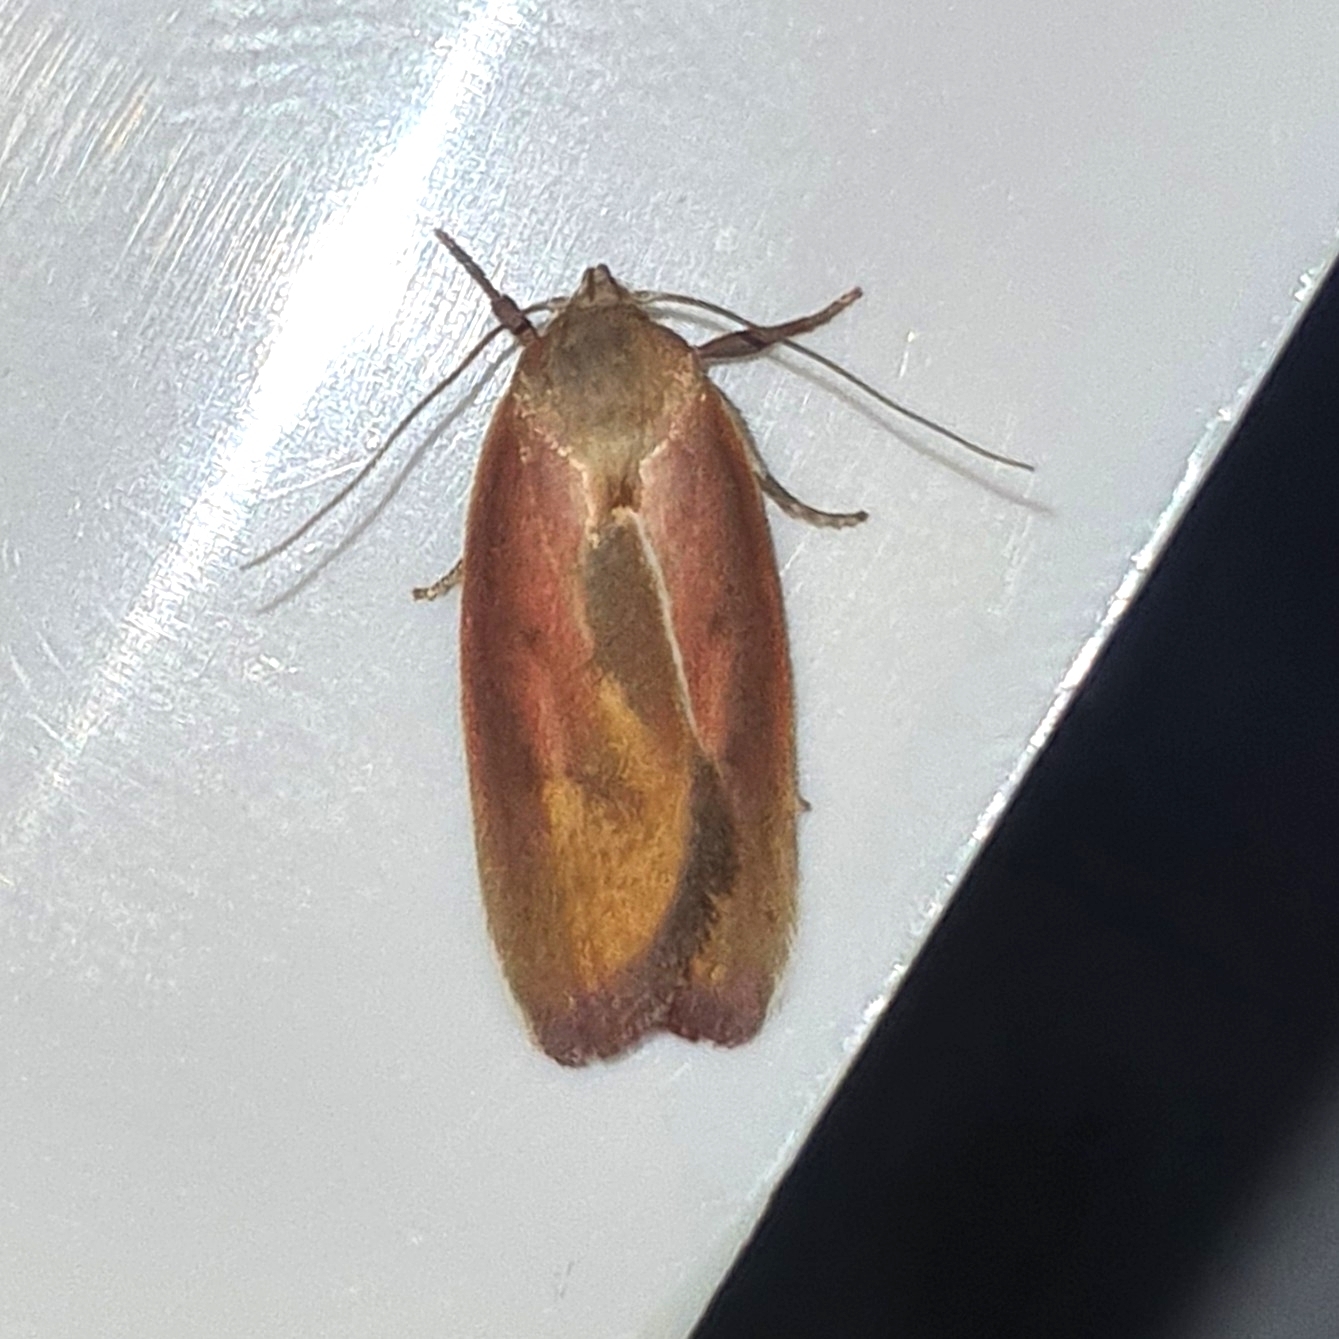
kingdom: Animalia
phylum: Arthropoda
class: Insecta
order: Lepidoptera
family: Oecophoridae
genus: Ptyoptila
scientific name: Ptyoptila matutinella
